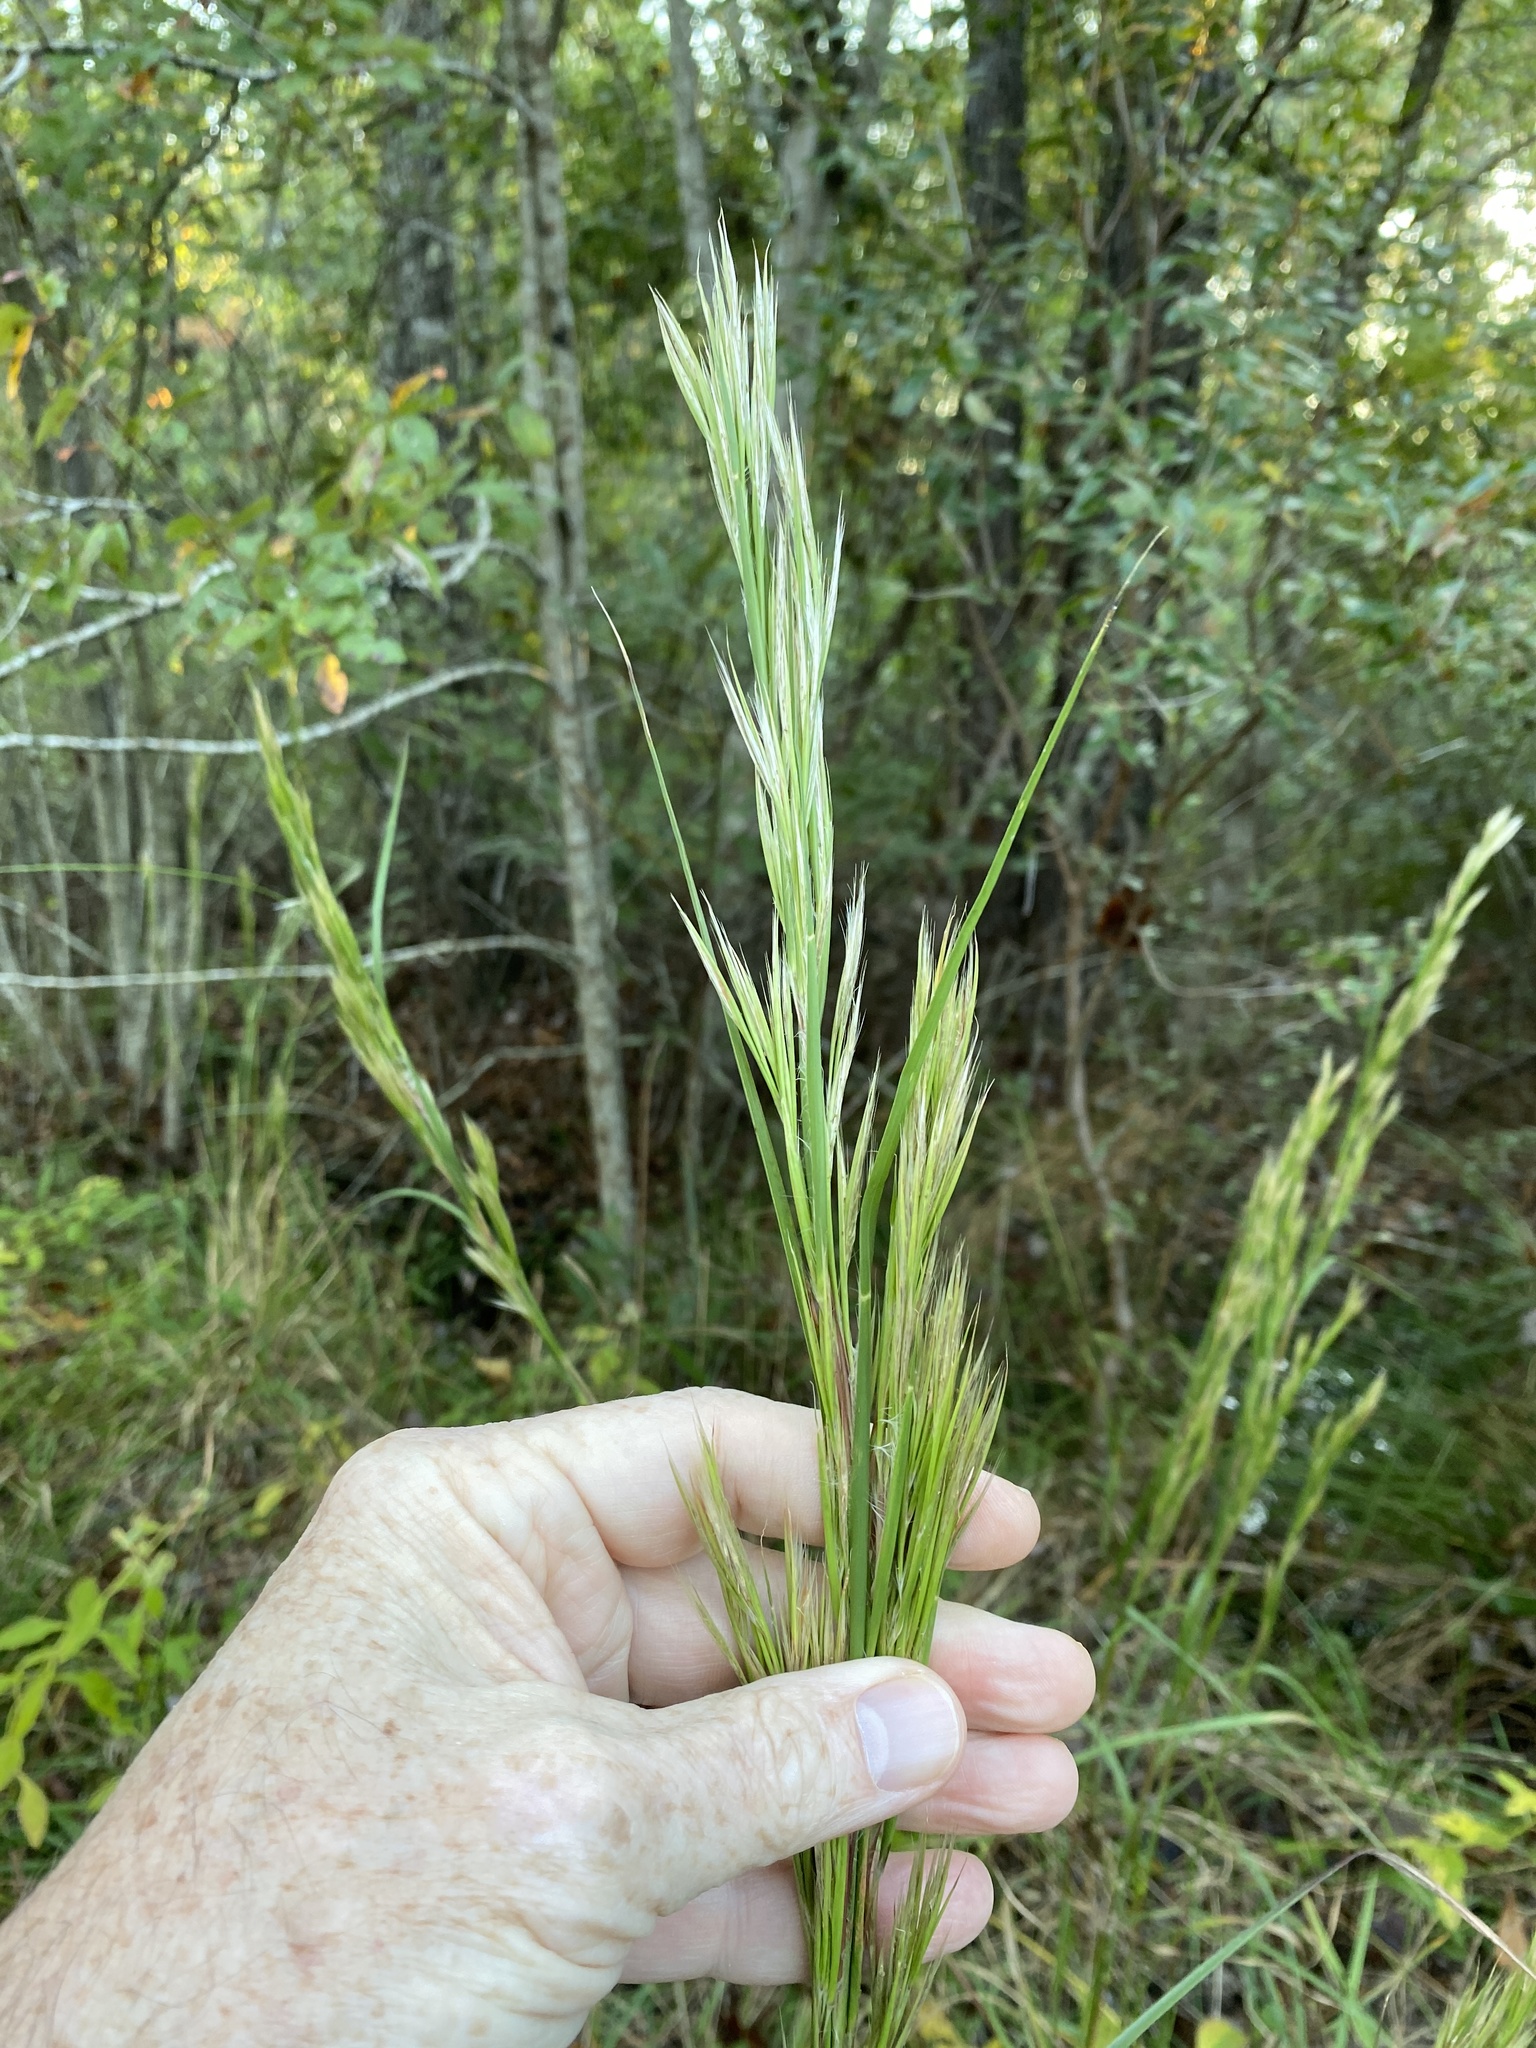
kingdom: Plantae
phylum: Tracheophyta
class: Liliopsida
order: Poales
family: Poaceae
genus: Andropogon
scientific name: Andropogon hirsutior
